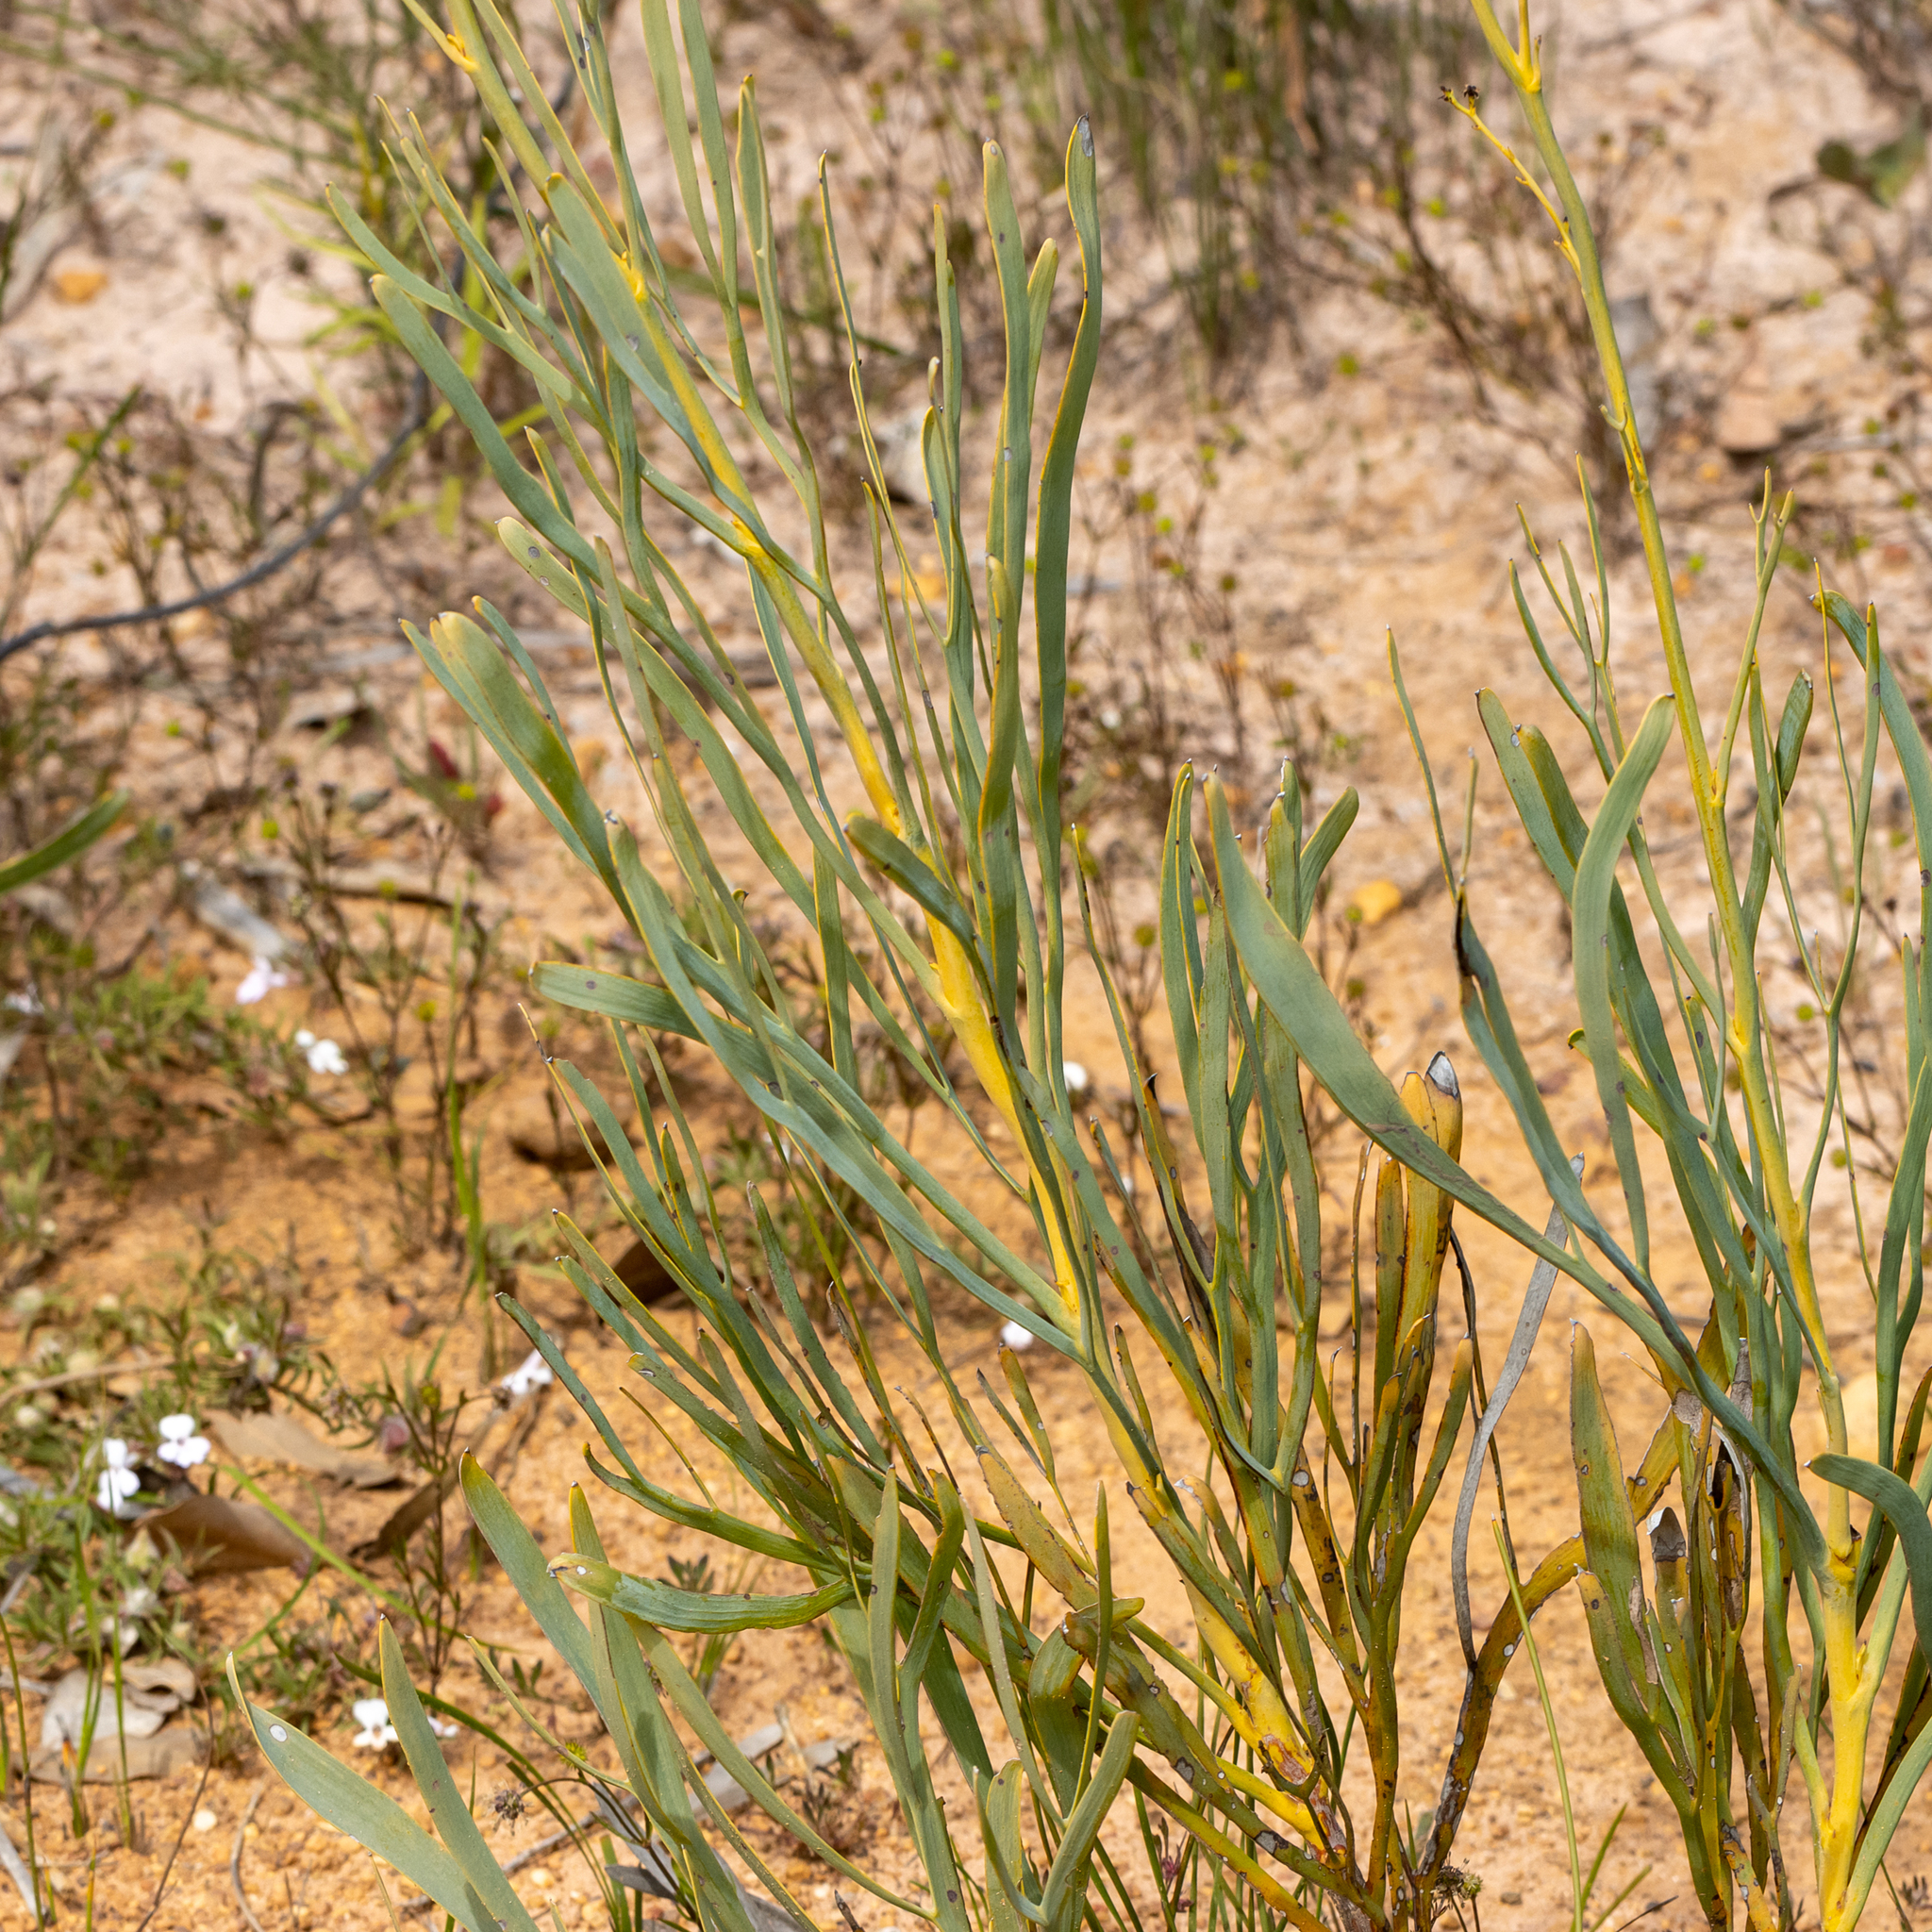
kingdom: Plantae
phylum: Tracheophyta
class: Magnoliopsida
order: Proteales
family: Proteaceae
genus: Stirlingia
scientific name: Stirlingia latifolia
